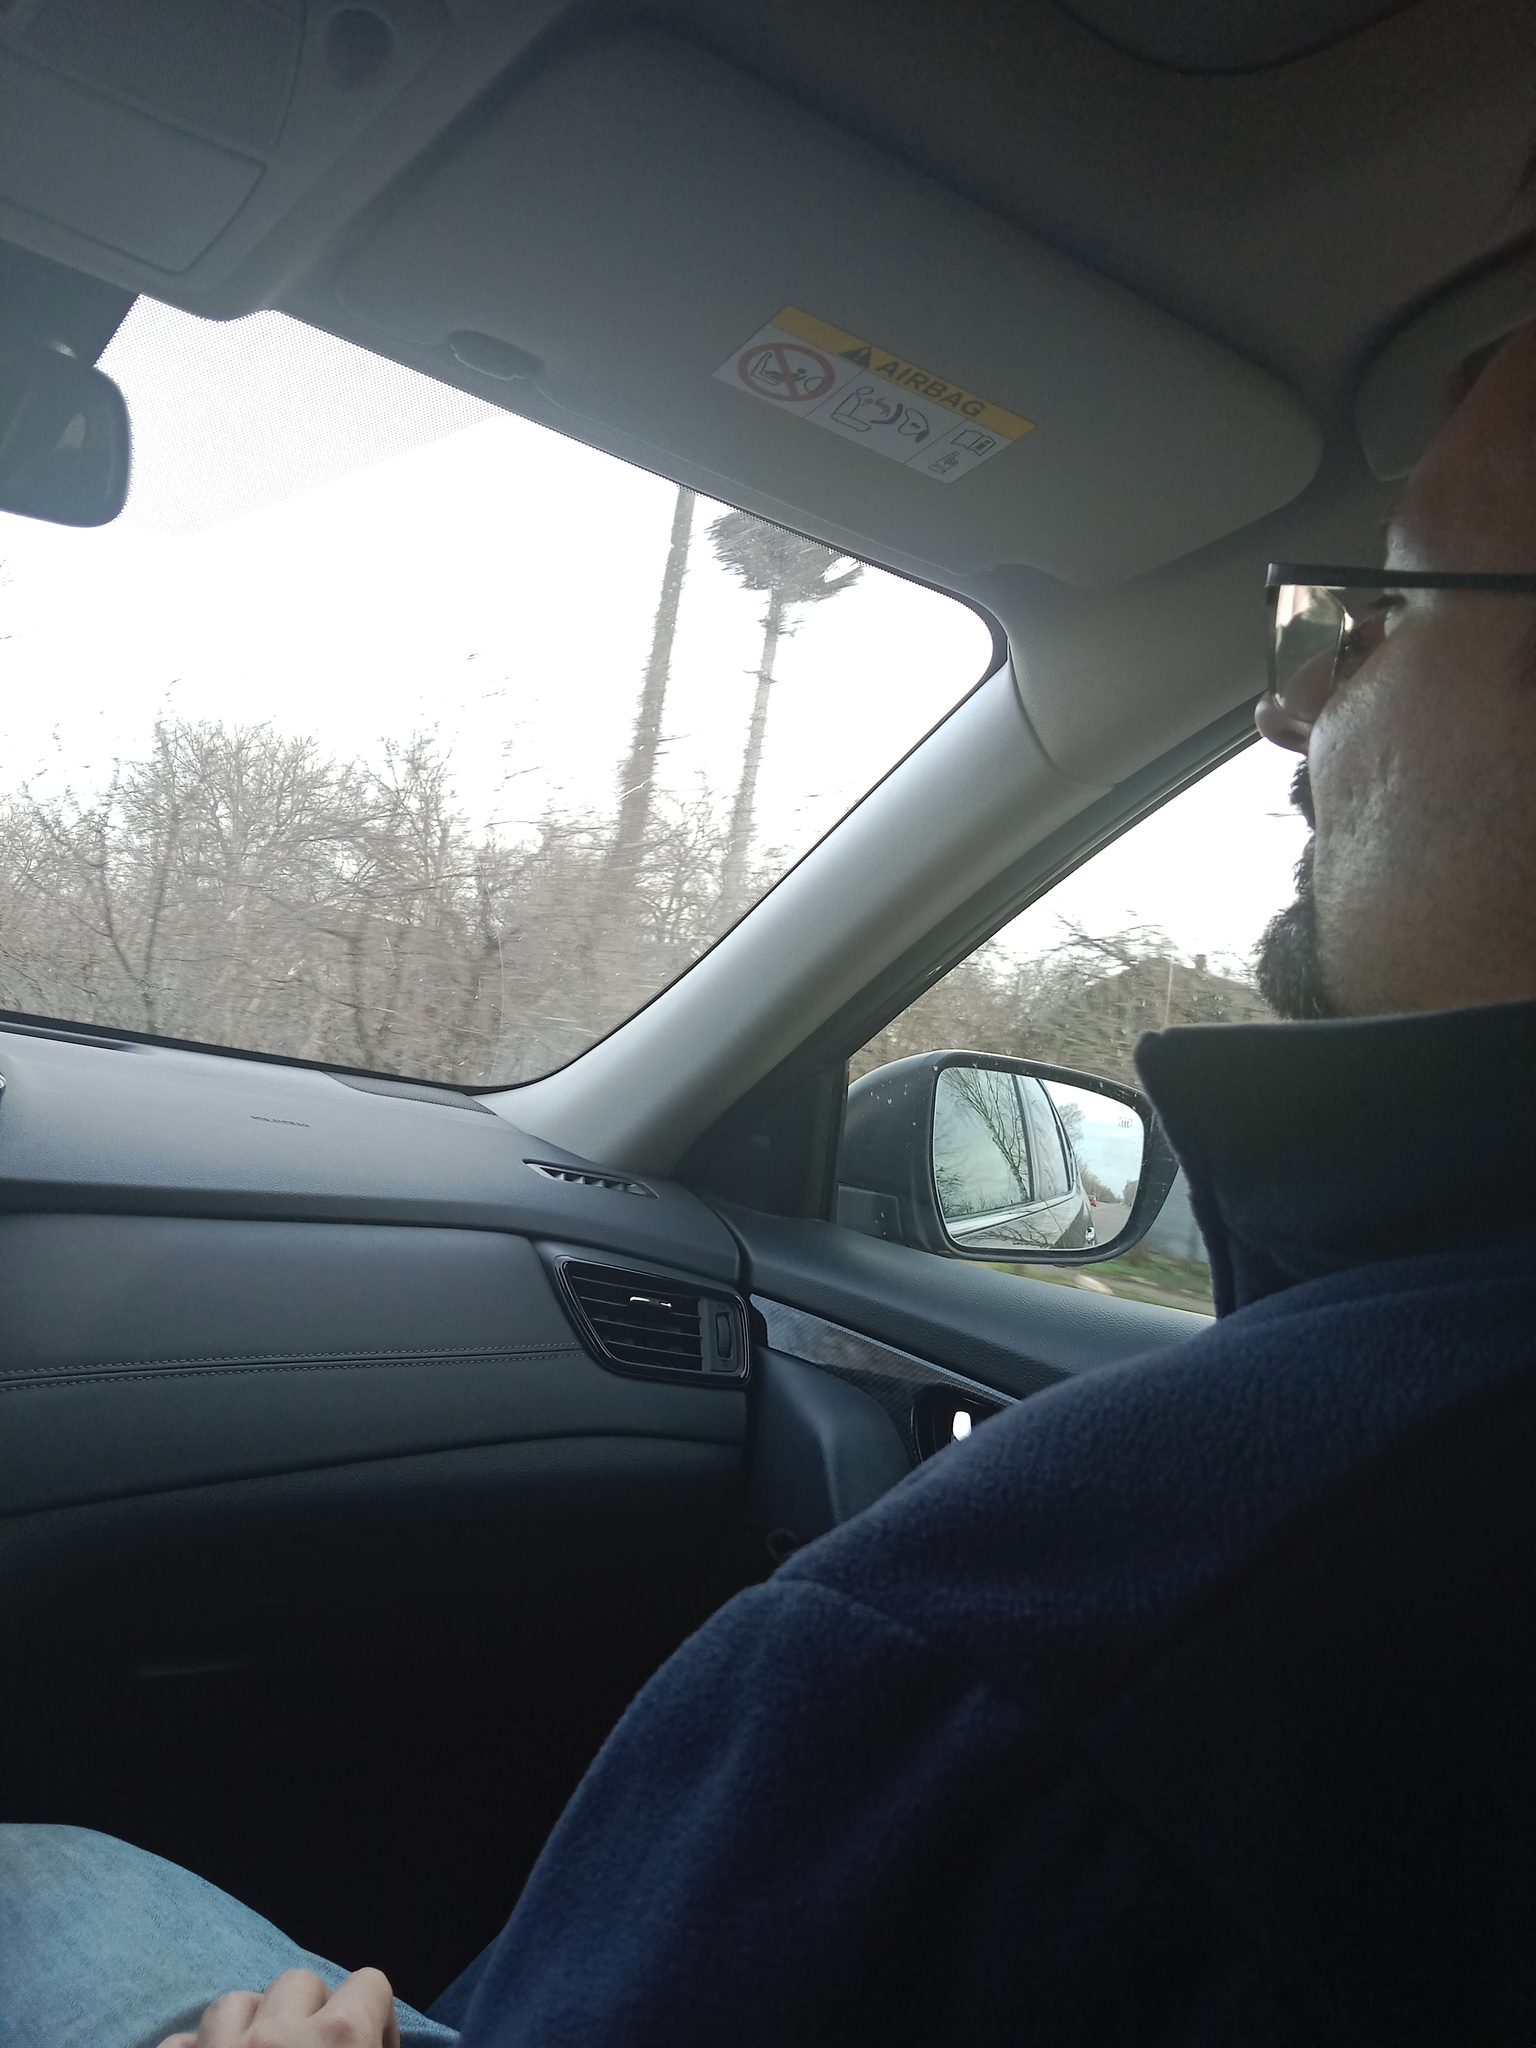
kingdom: Animalia
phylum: Chordata
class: Aves
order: Ciconiiformes
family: Ciconiidae
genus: Ciconia
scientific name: Ciconia ciconia
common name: White stork
